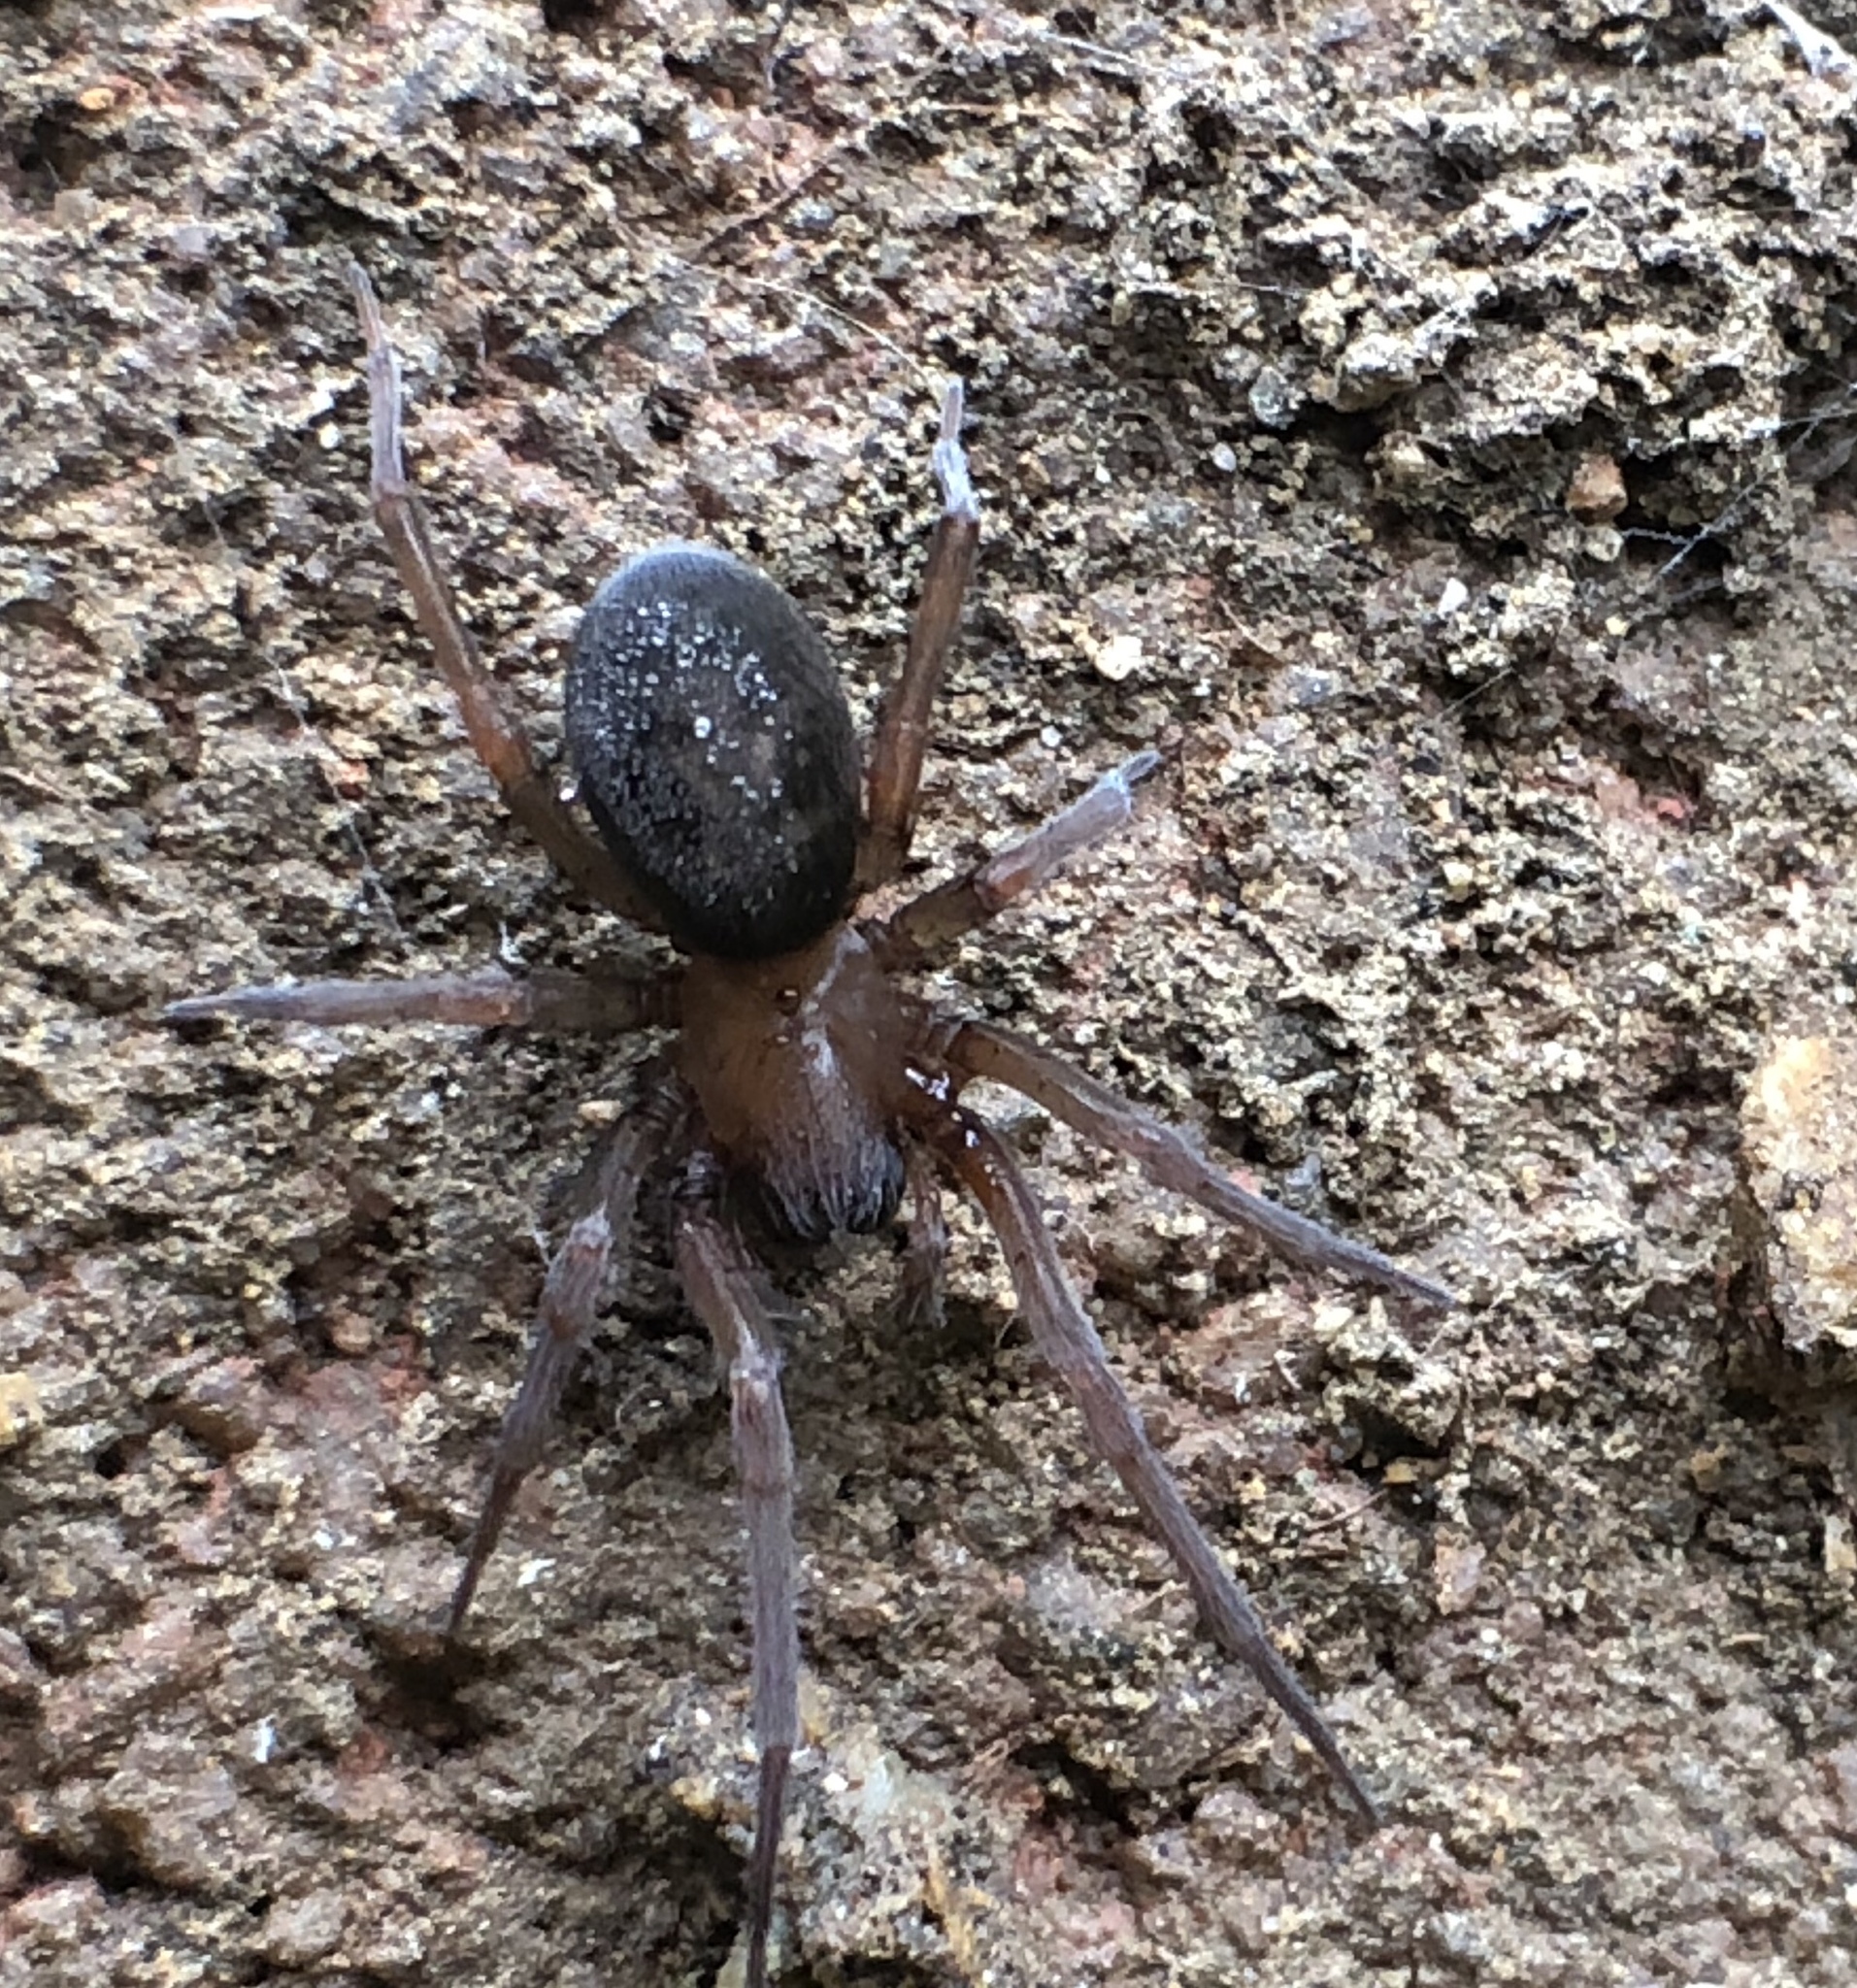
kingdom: Animalia
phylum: Arthropoda
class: Arachnida
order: Araneae
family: Desidae
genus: Metaltella
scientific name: Metaltella simoni
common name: Cribellate spider
